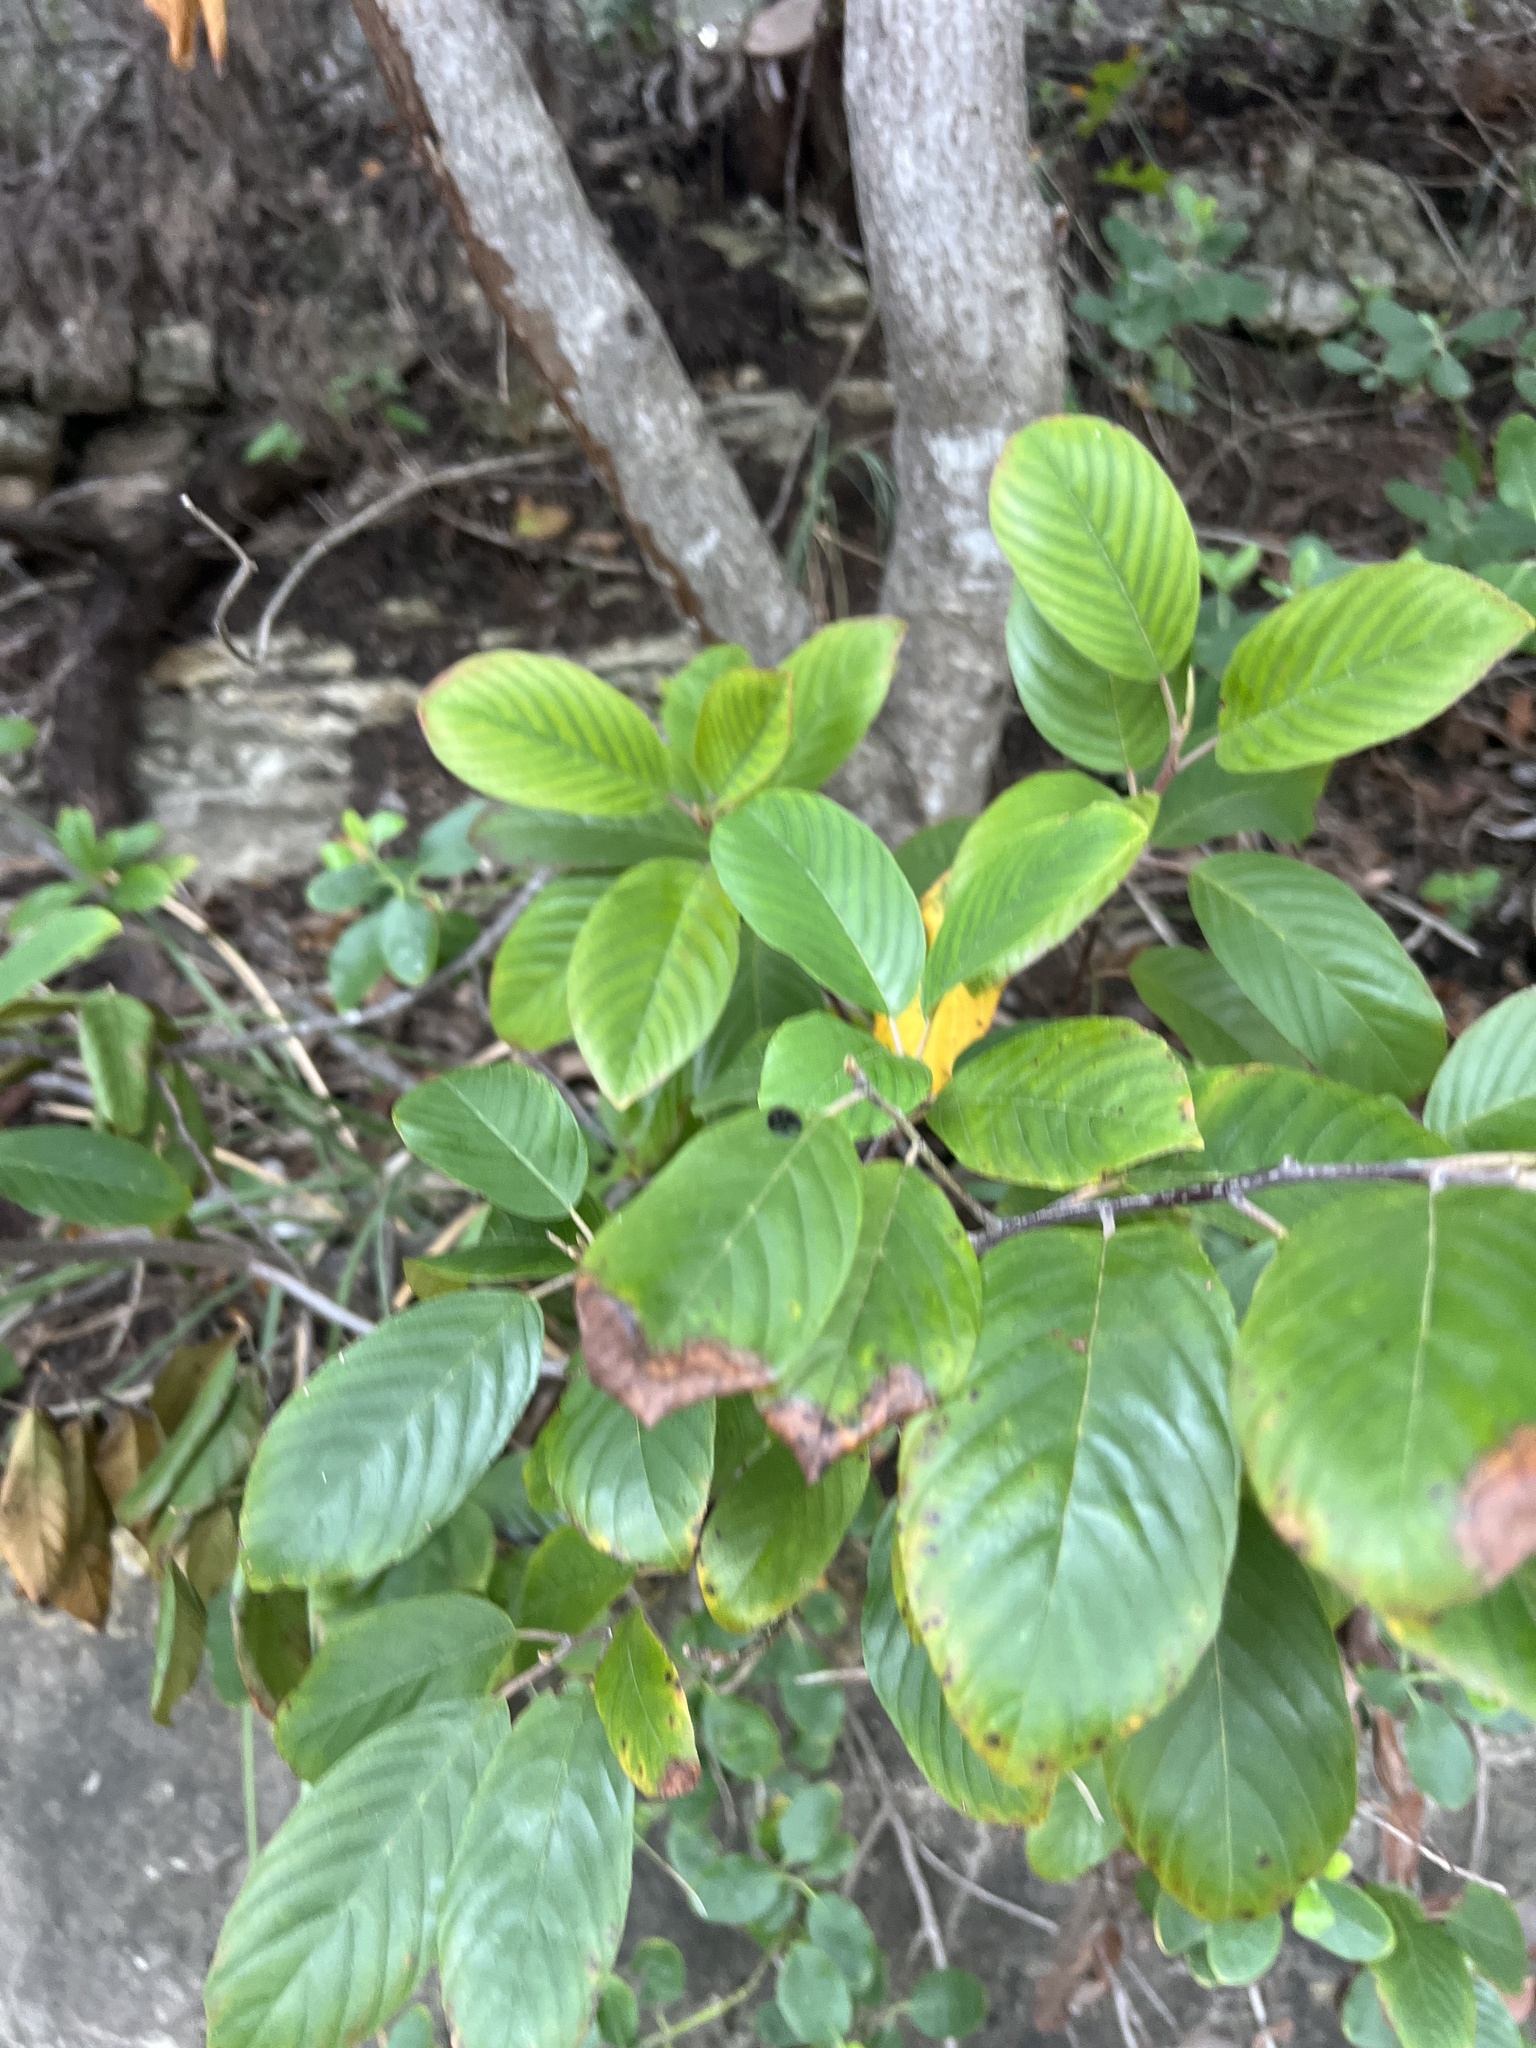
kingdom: Plantae
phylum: Tracheophyta
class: Magnoliopsida
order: Rosales
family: Rhamnaceae
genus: Frangula
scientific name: Frangula caroliniana
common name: Carolina buckthorn
